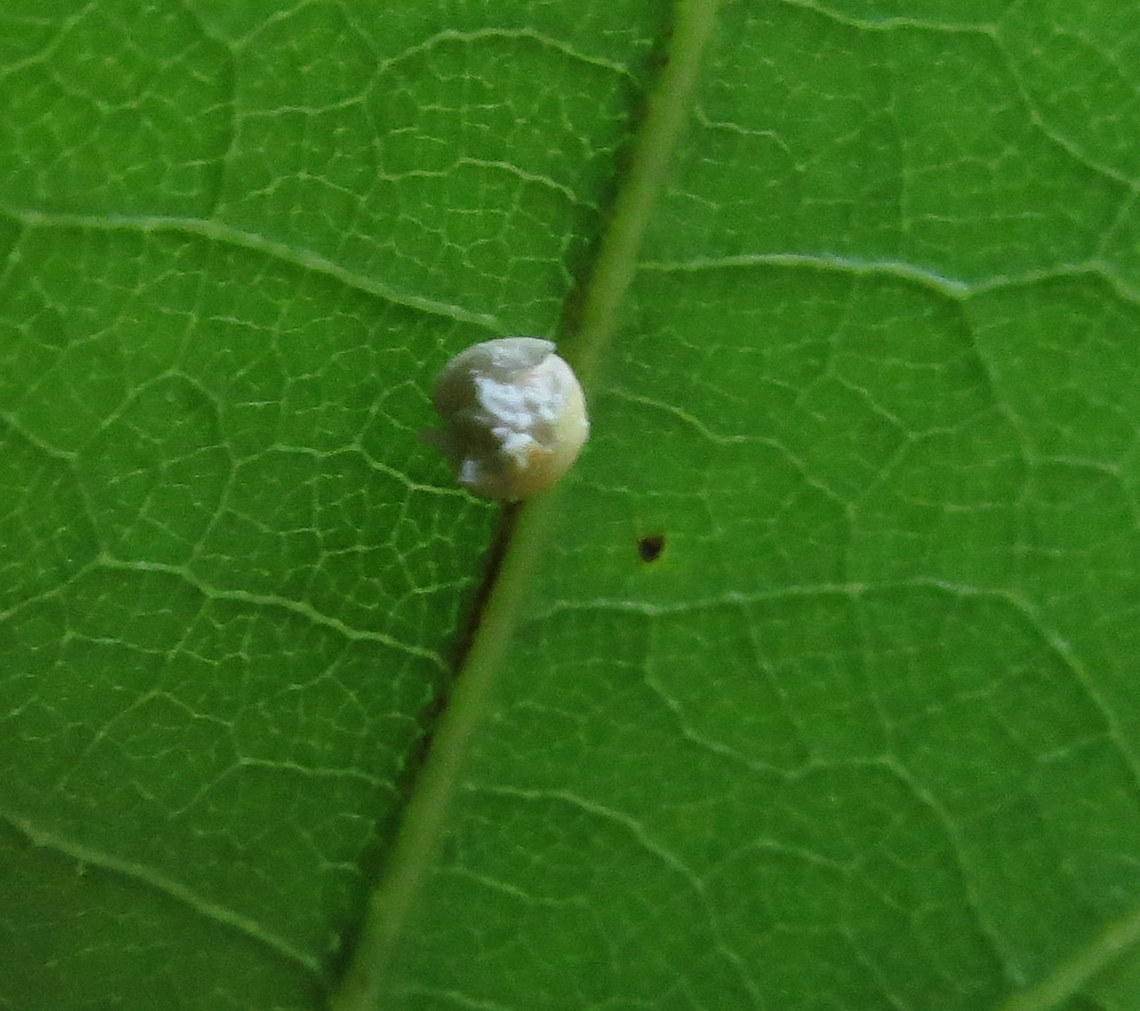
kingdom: Animalia
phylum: Arthropoda
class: Insecta
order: Hymenoptera
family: Cynipidae
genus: Zopheroteras
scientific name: Zopheroteras
